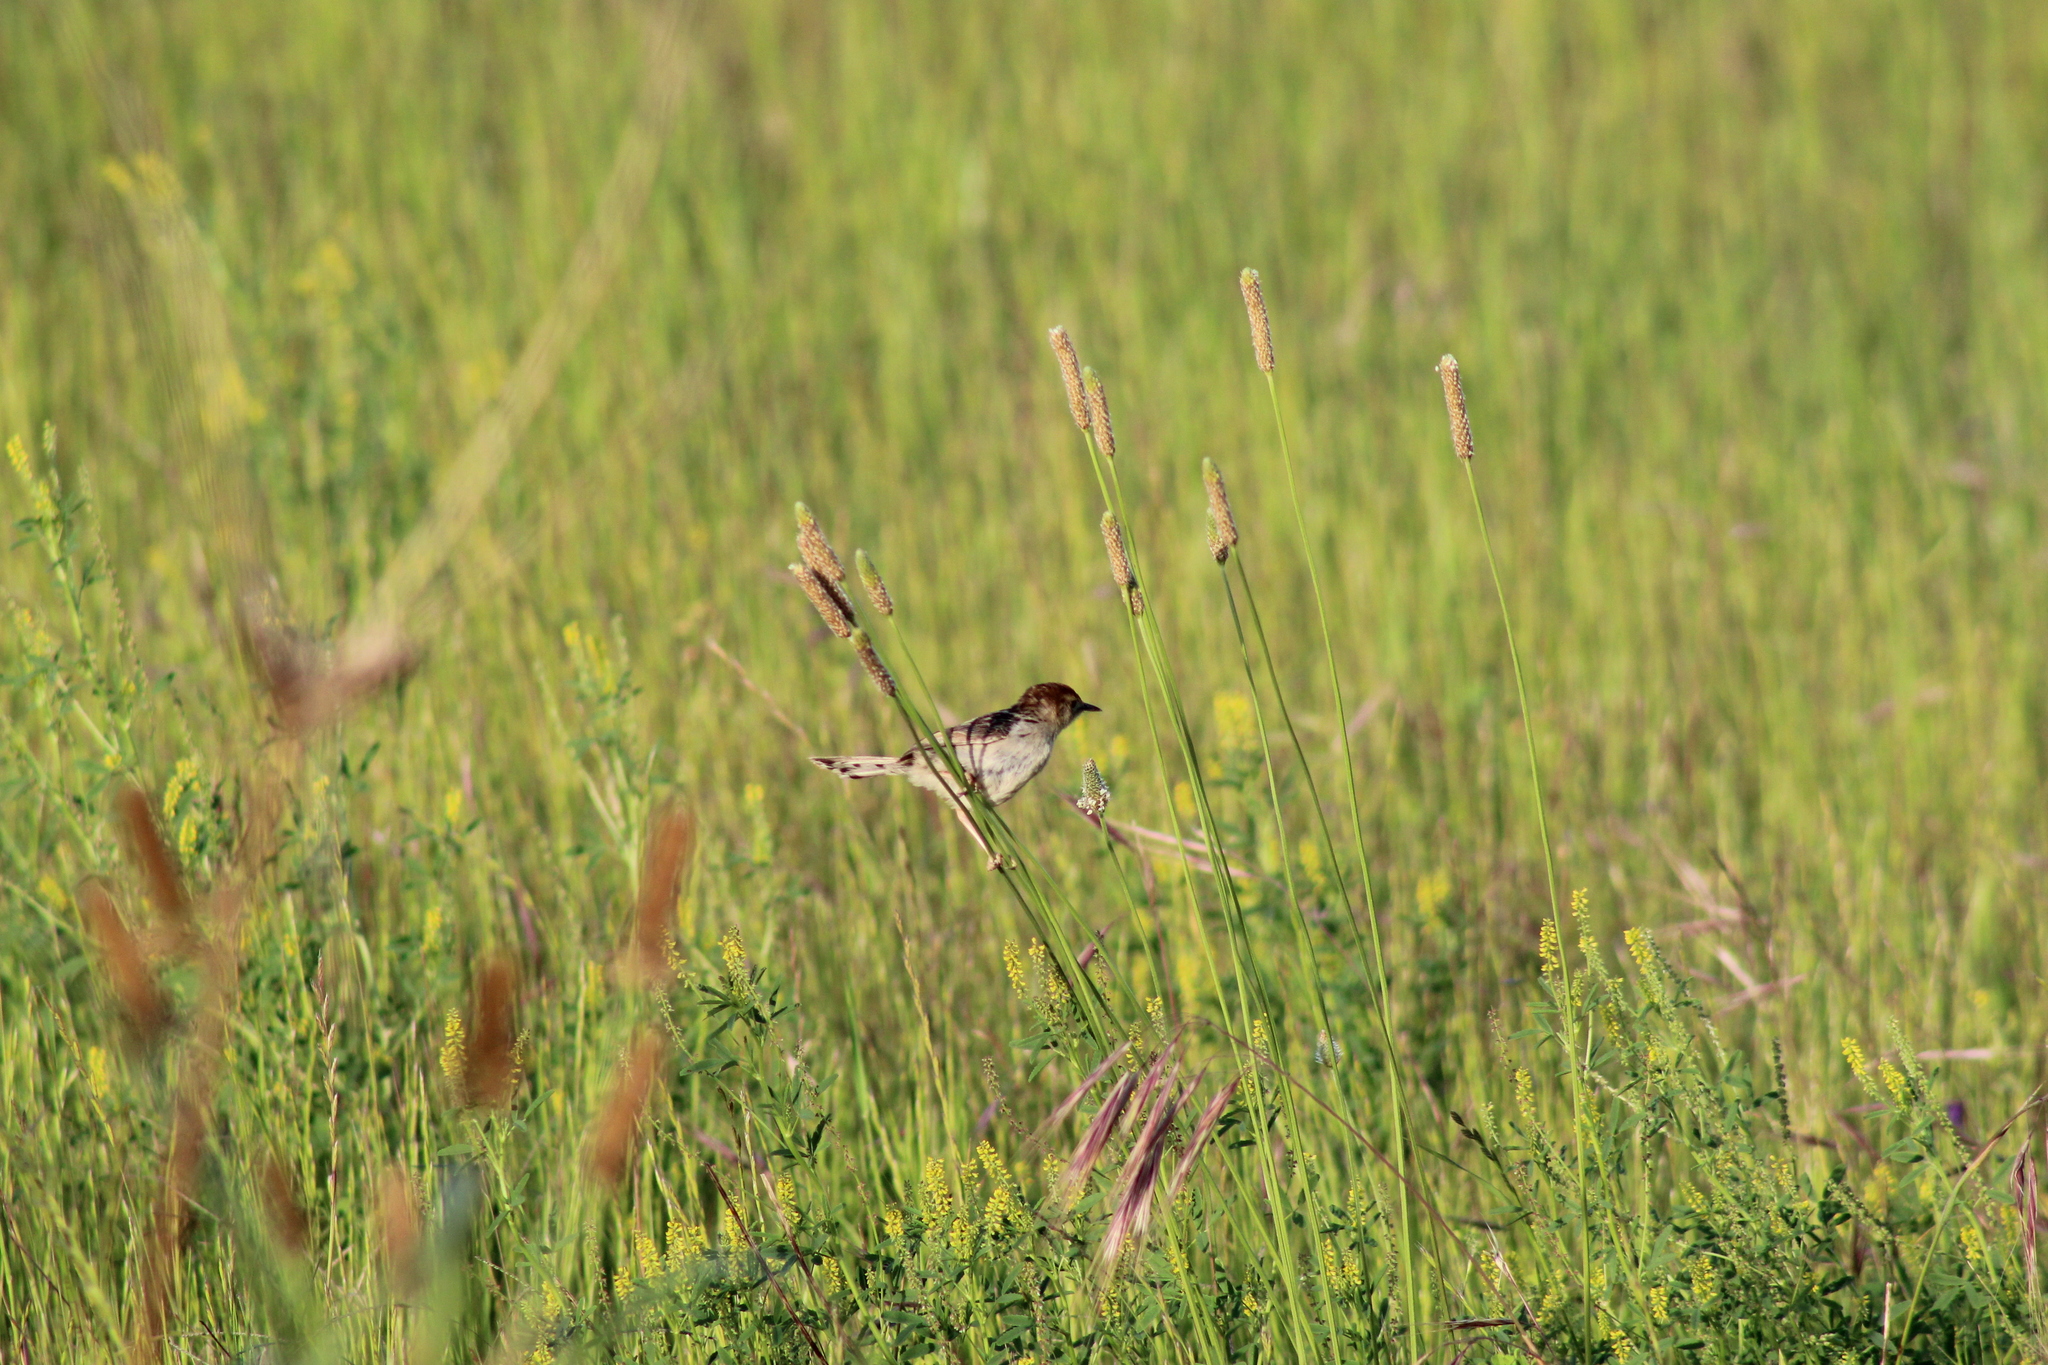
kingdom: Animalia
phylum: Chordata
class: Aves
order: Passeriformes
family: Cisticolidae
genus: Cisticola
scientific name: Cisticola tinniens
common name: Levaillant's cisticola
